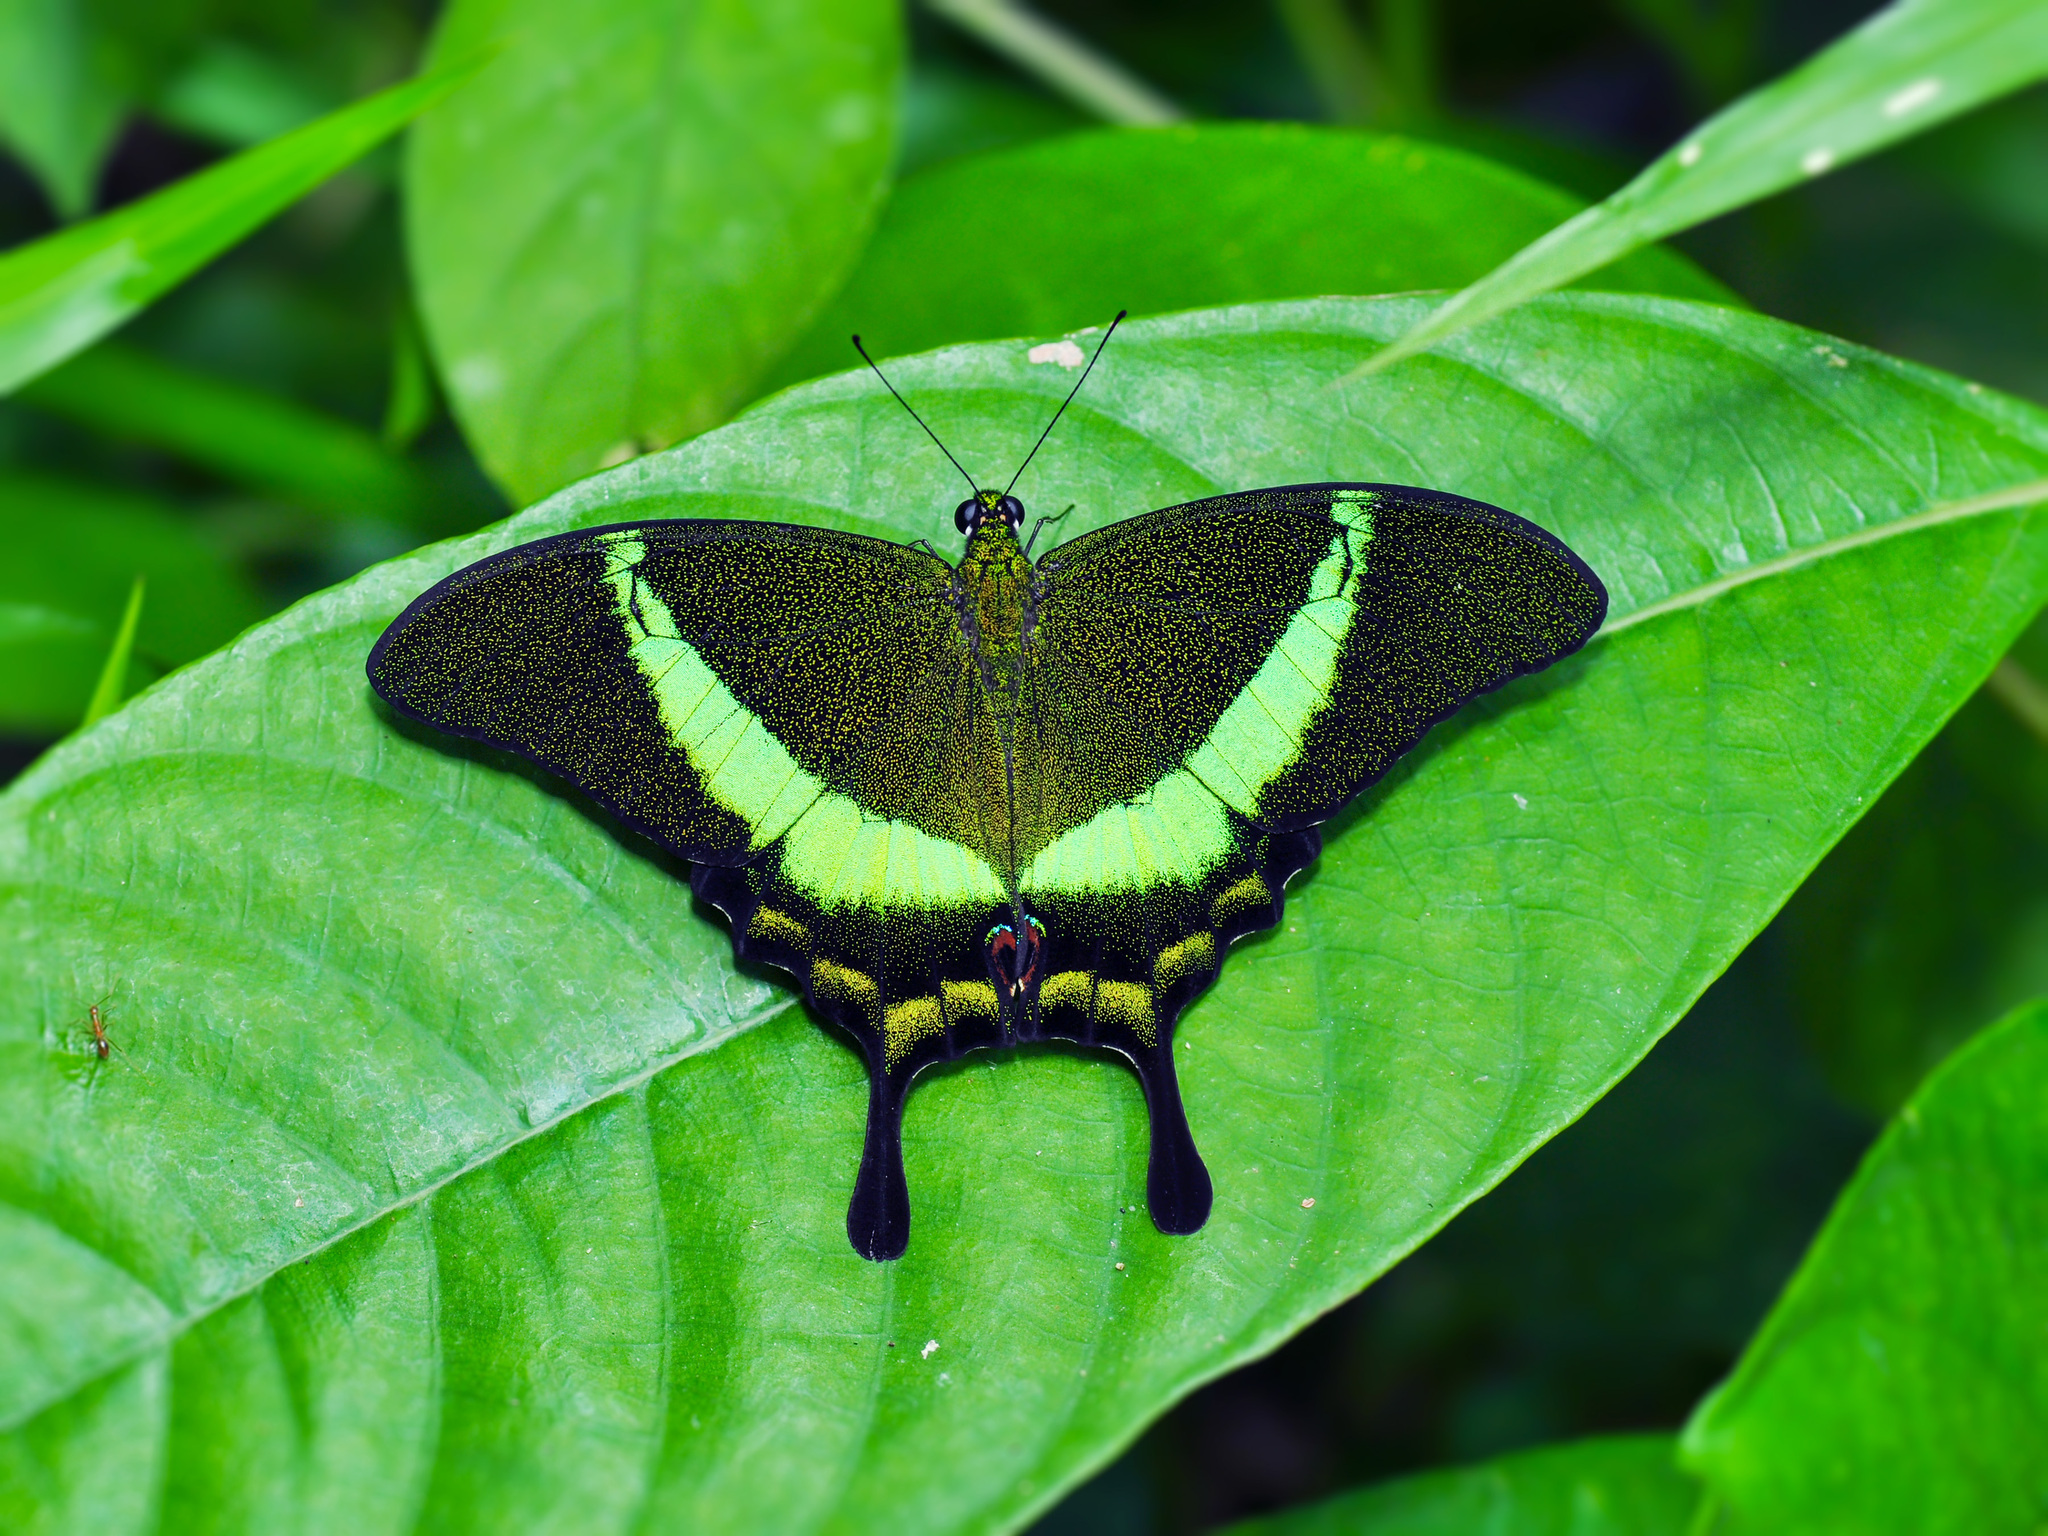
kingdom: Animalia
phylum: Arthropoda
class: Insecta
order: Lepidoptera
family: Papilionidae
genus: Papilio
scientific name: Papilio palinurus
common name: Banded peacock
